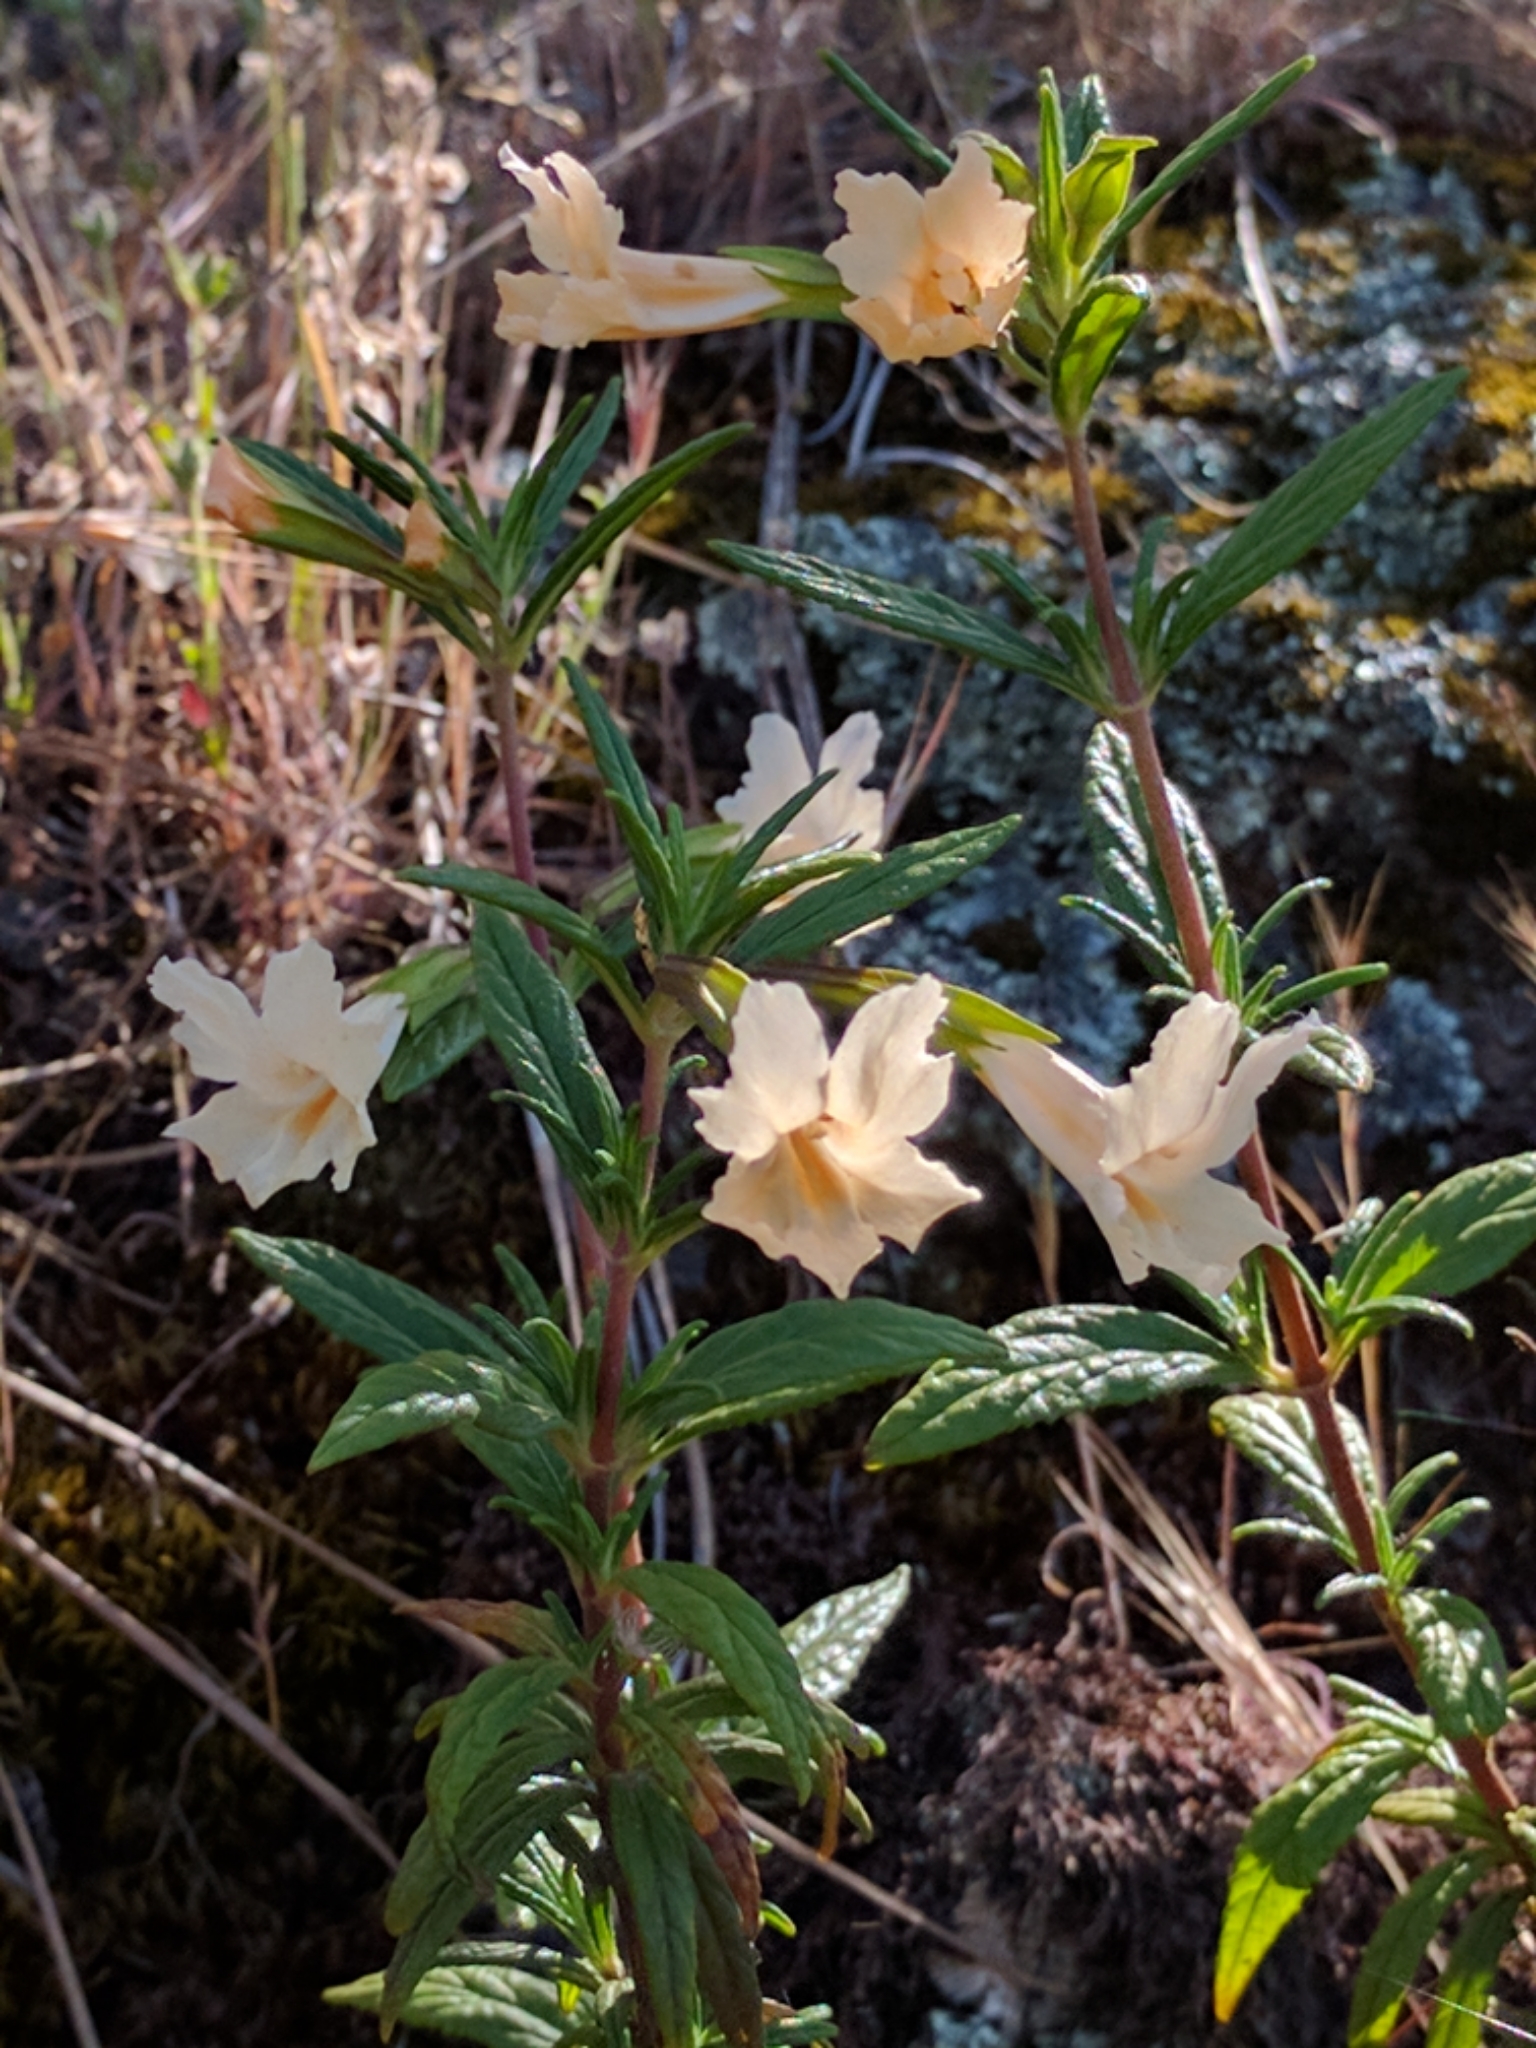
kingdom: Plantae
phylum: Tracheophyta
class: Magnoliopsida
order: Lamiales
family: Phrymaceae
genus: Diplacus
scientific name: Diplacus aurantiacus
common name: Bush monkey-flower
